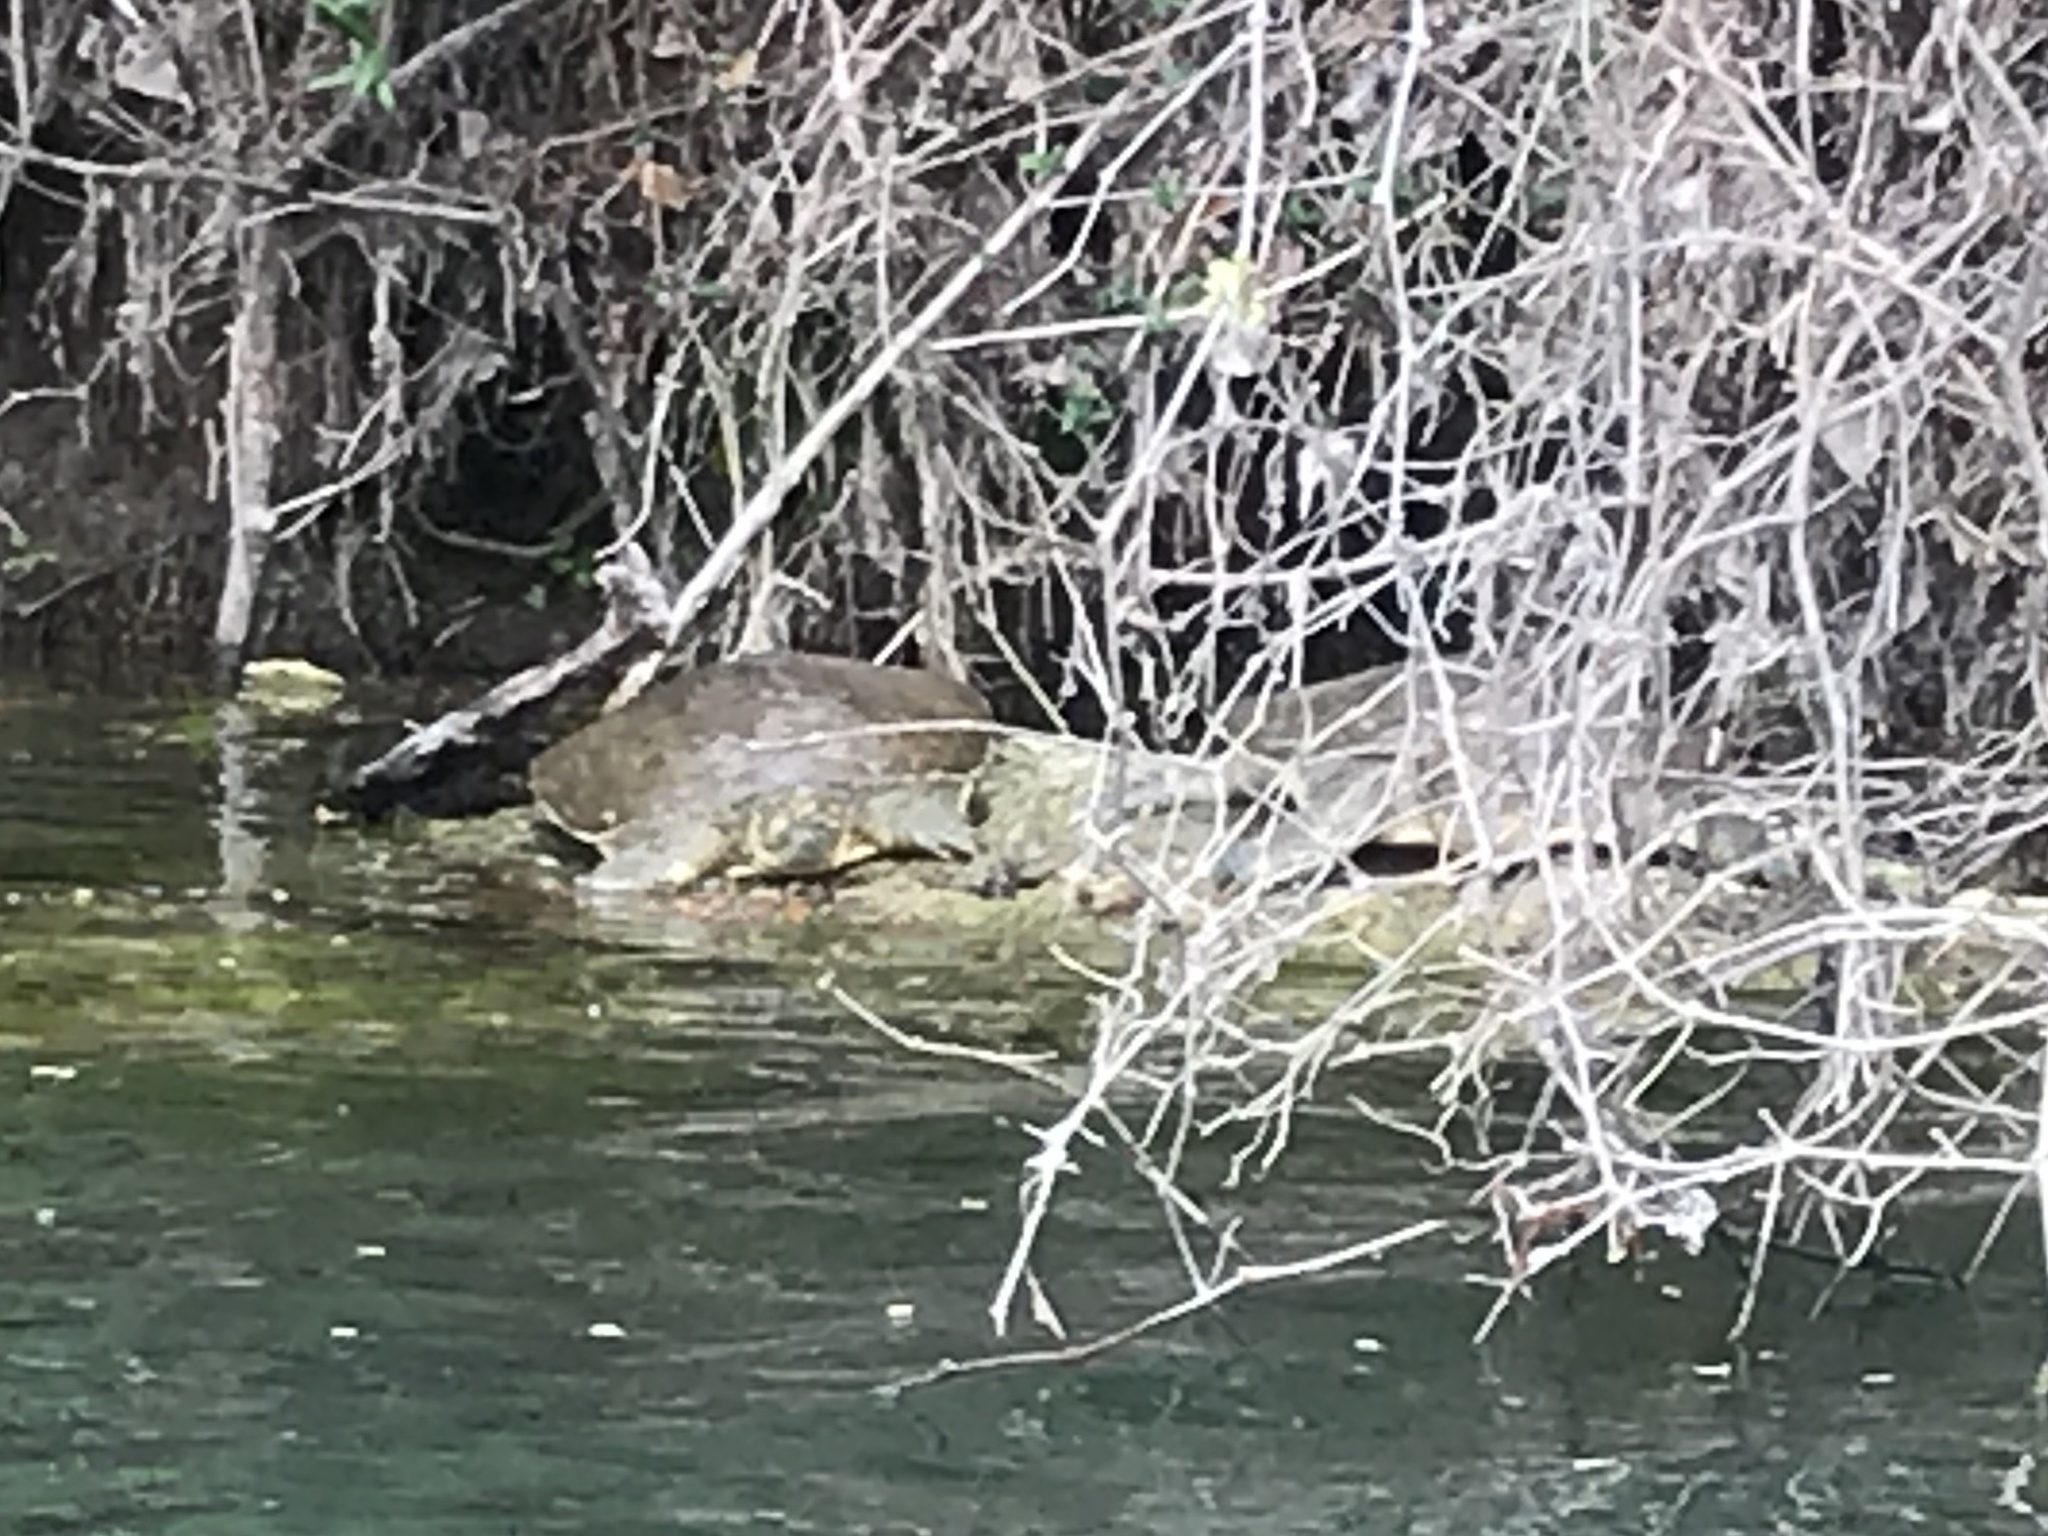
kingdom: Animalia
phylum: Chordata
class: Testudines
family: Trionychidae
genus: Apalone
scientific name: Apalone spinifera
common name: Spiny softshell turtle
